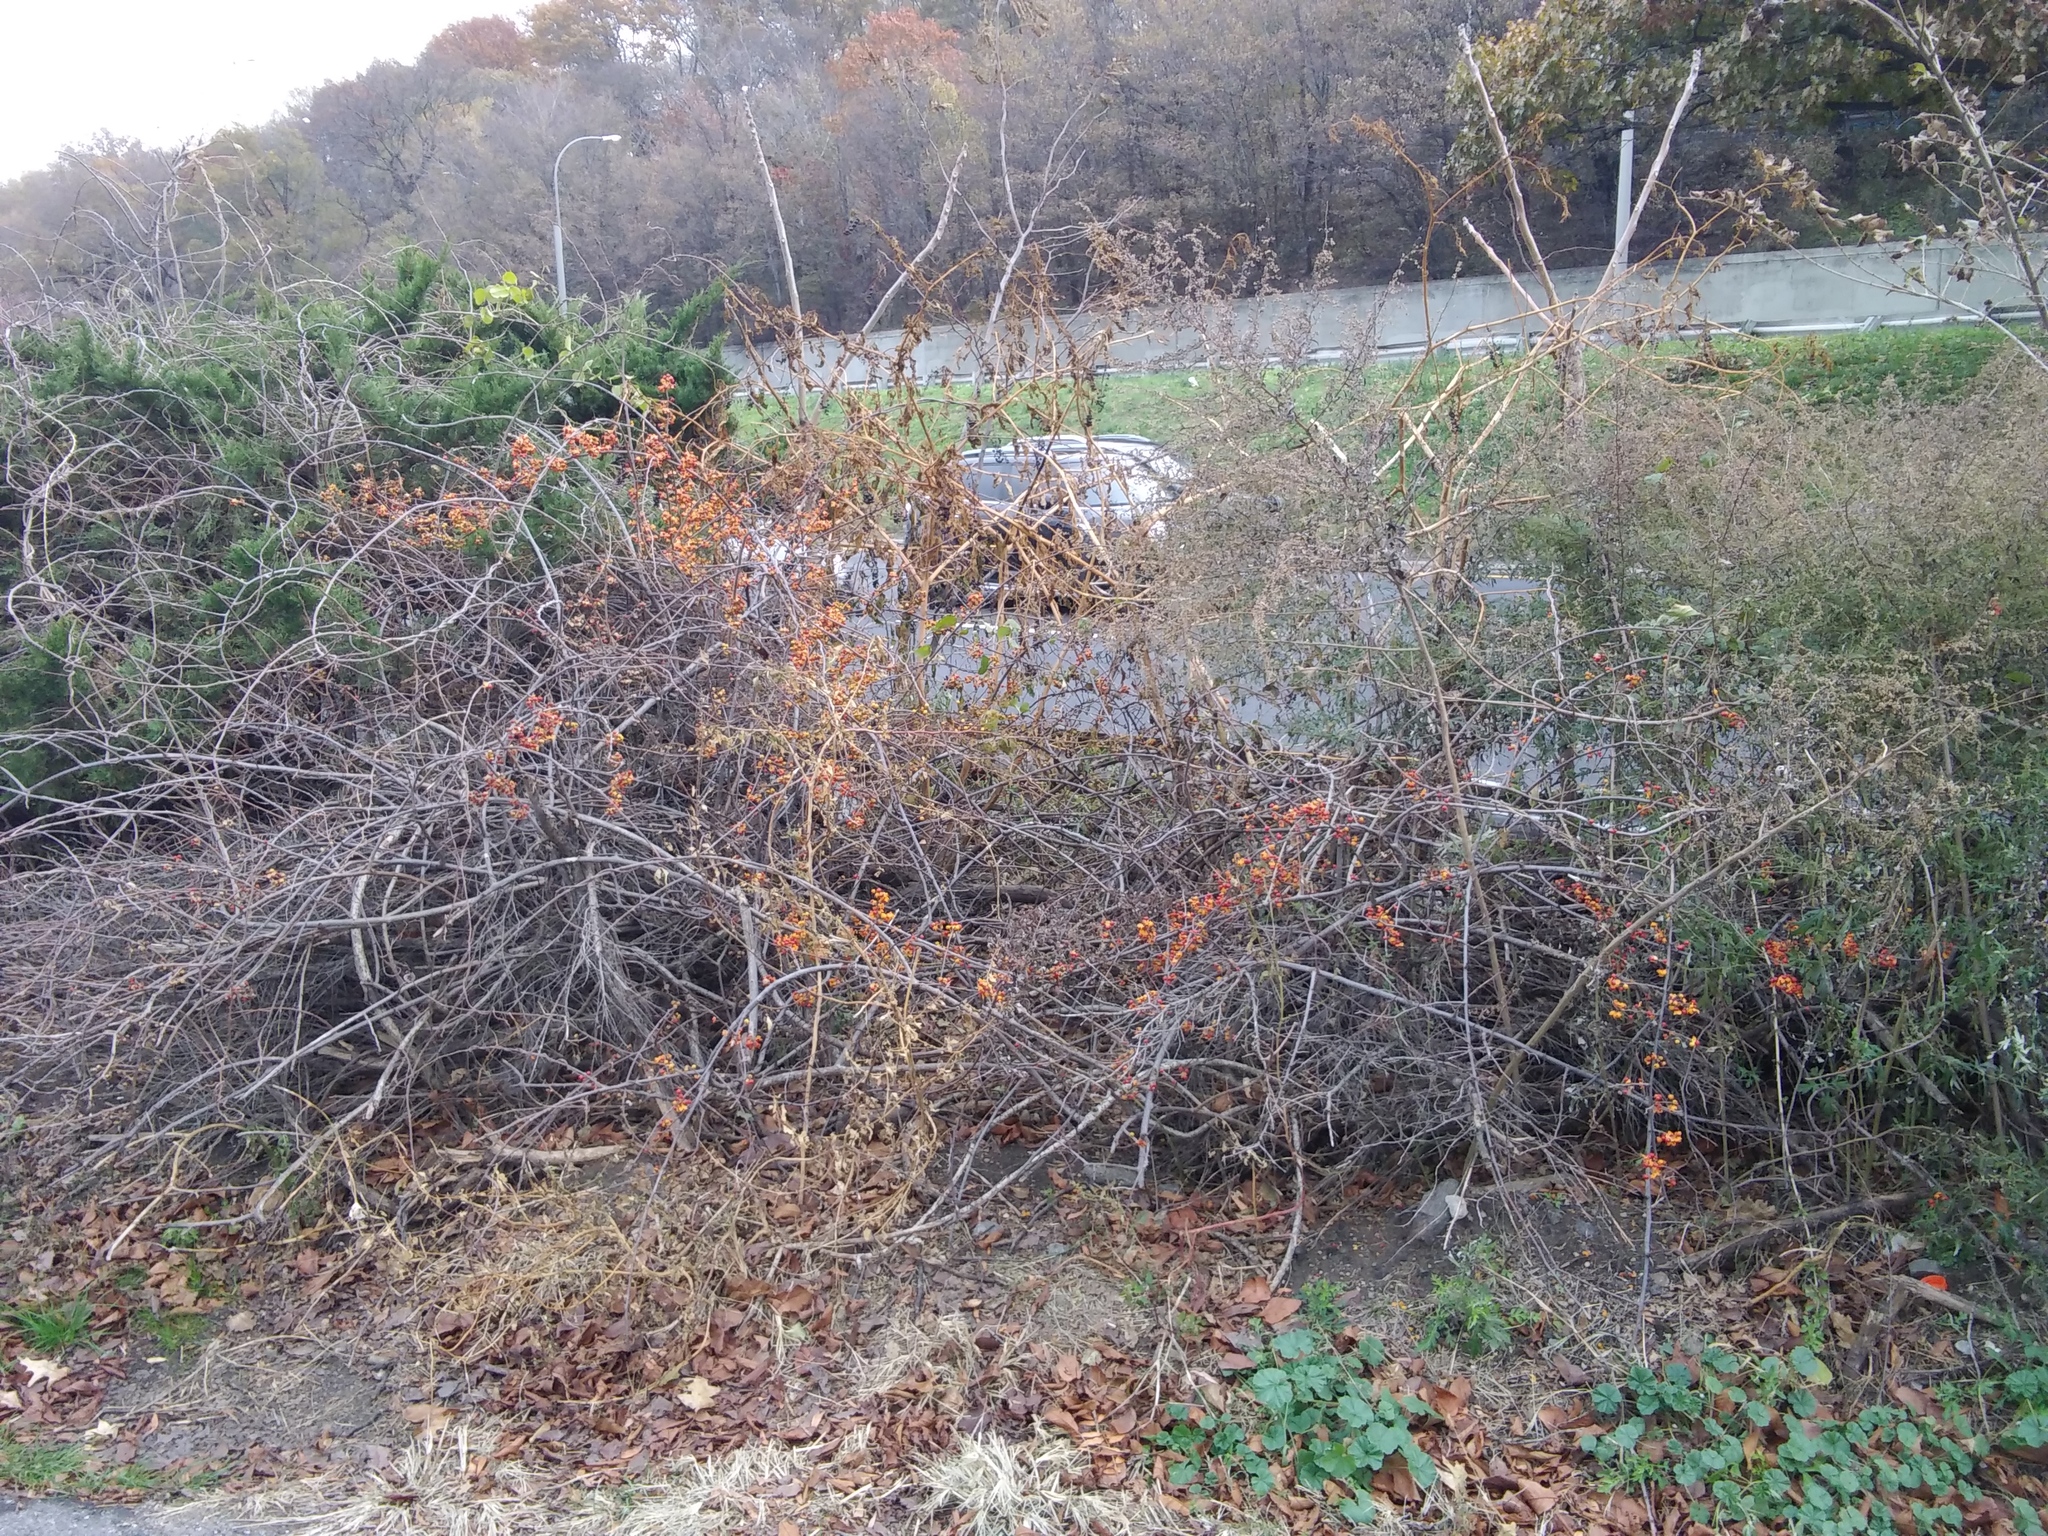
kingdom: Plantae
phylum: Tracheophyta
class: Magnoliopsida
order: Celastrales
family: Celastraceae
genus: Celastrus
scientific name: Celastrus orbiculatus
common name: Oriental bittersweet
